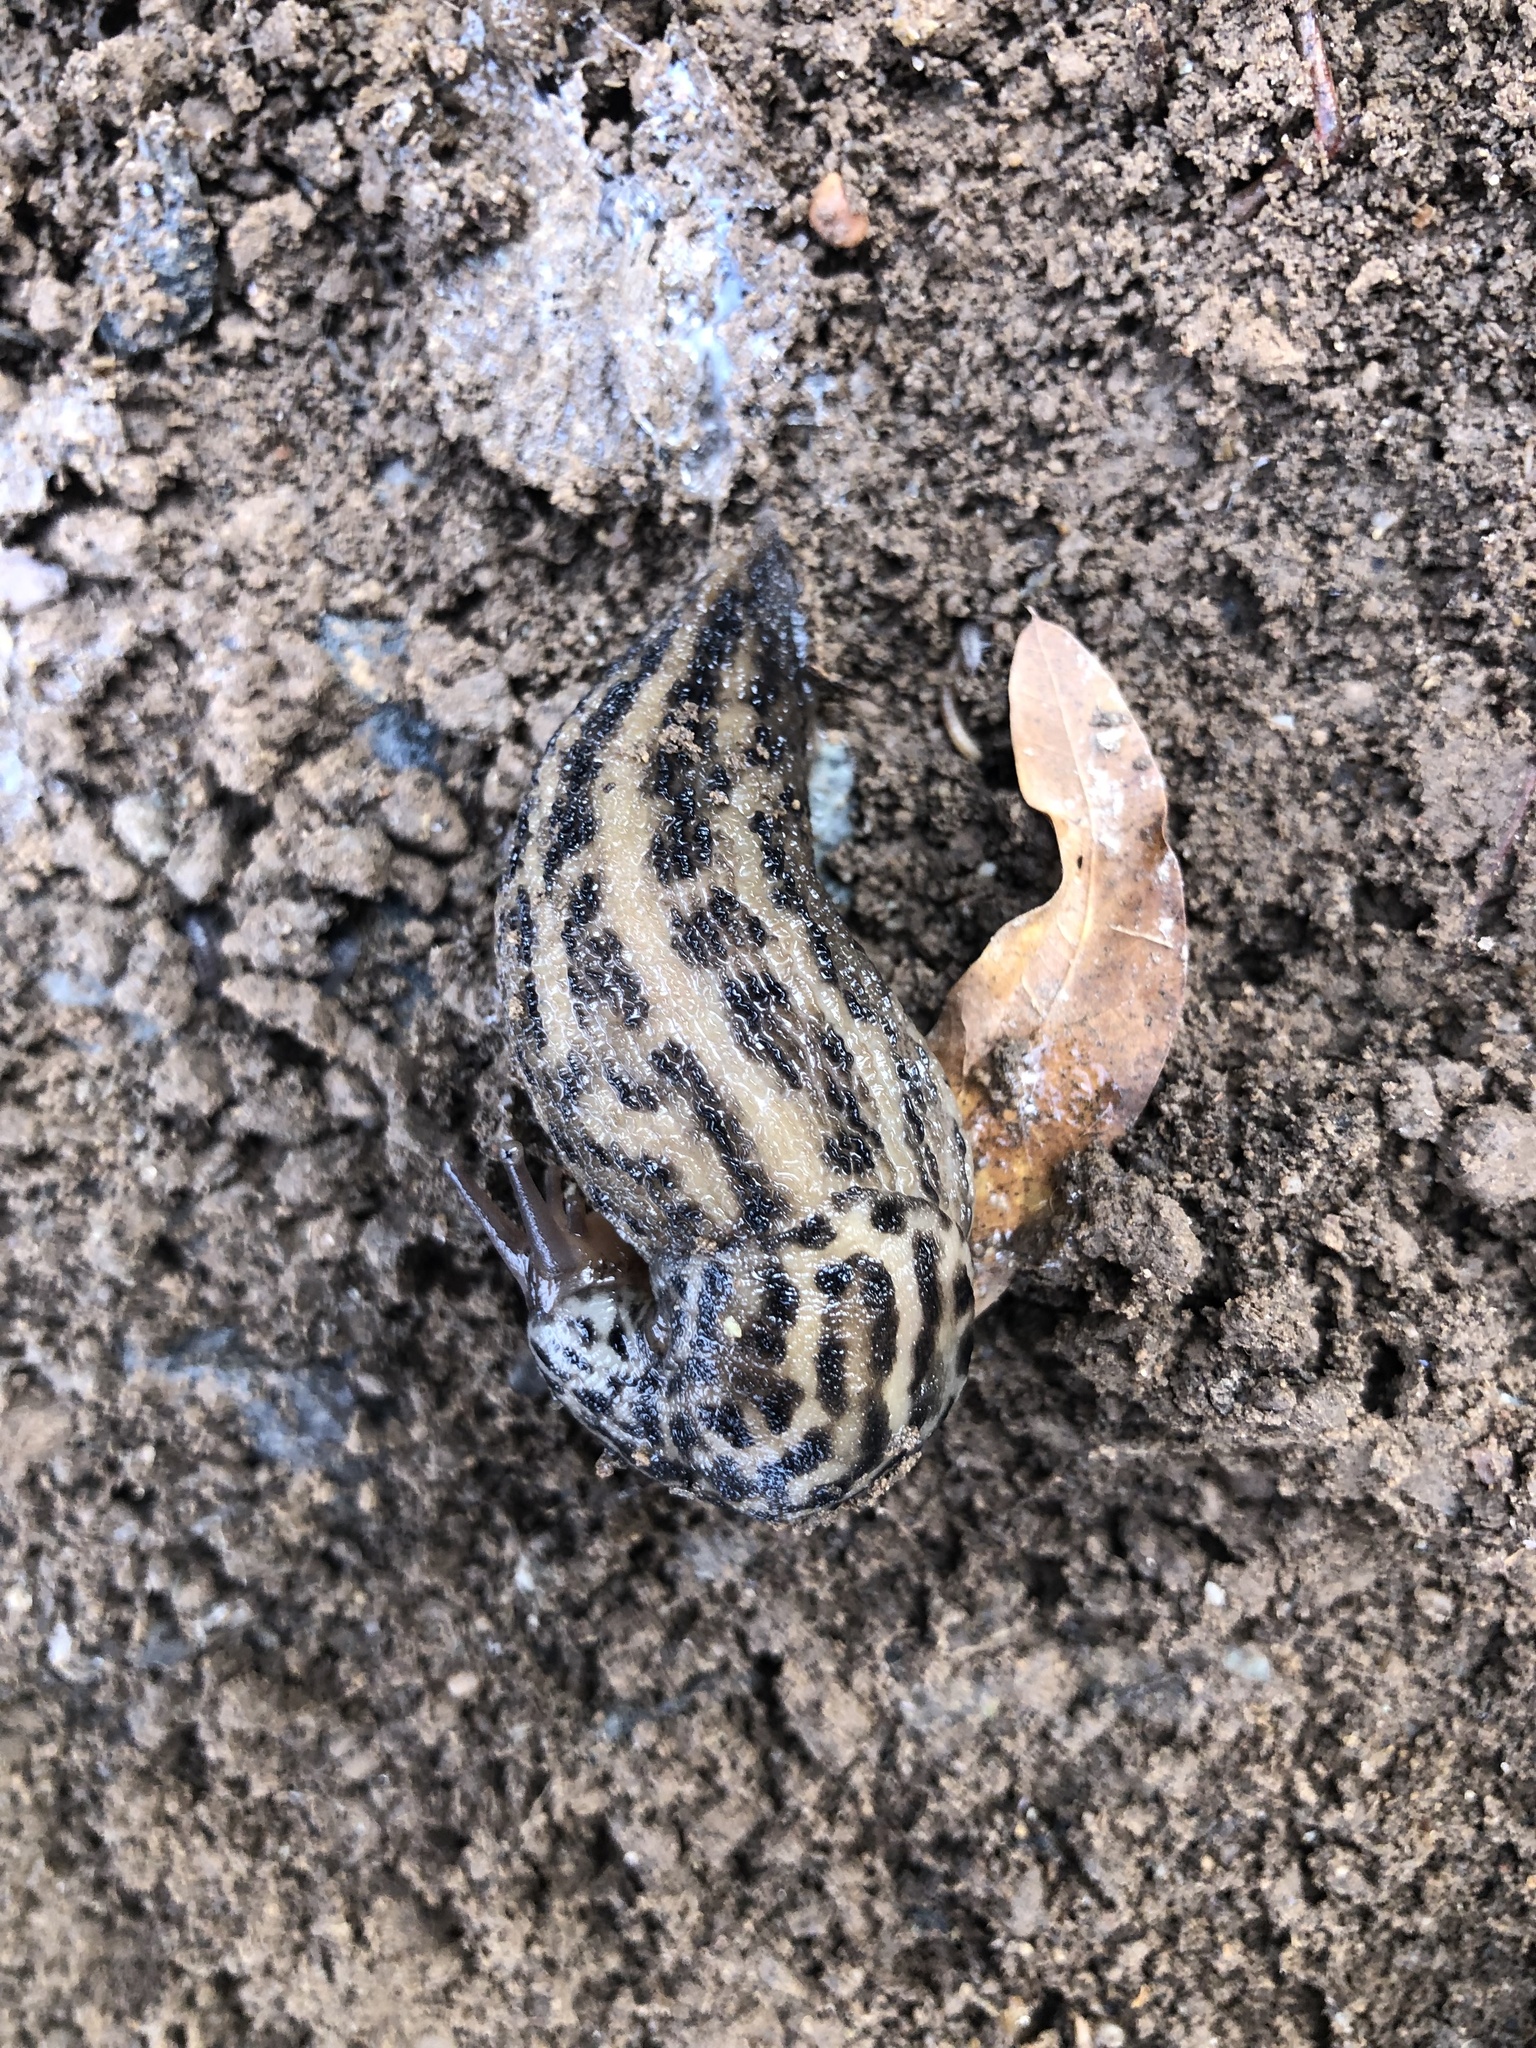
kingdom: Animalia
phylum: Mollusca
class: Gastropoda
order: Stylommatophora
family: Limacidae
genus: Limax
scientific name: Limax maximus
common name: Great grey slug
